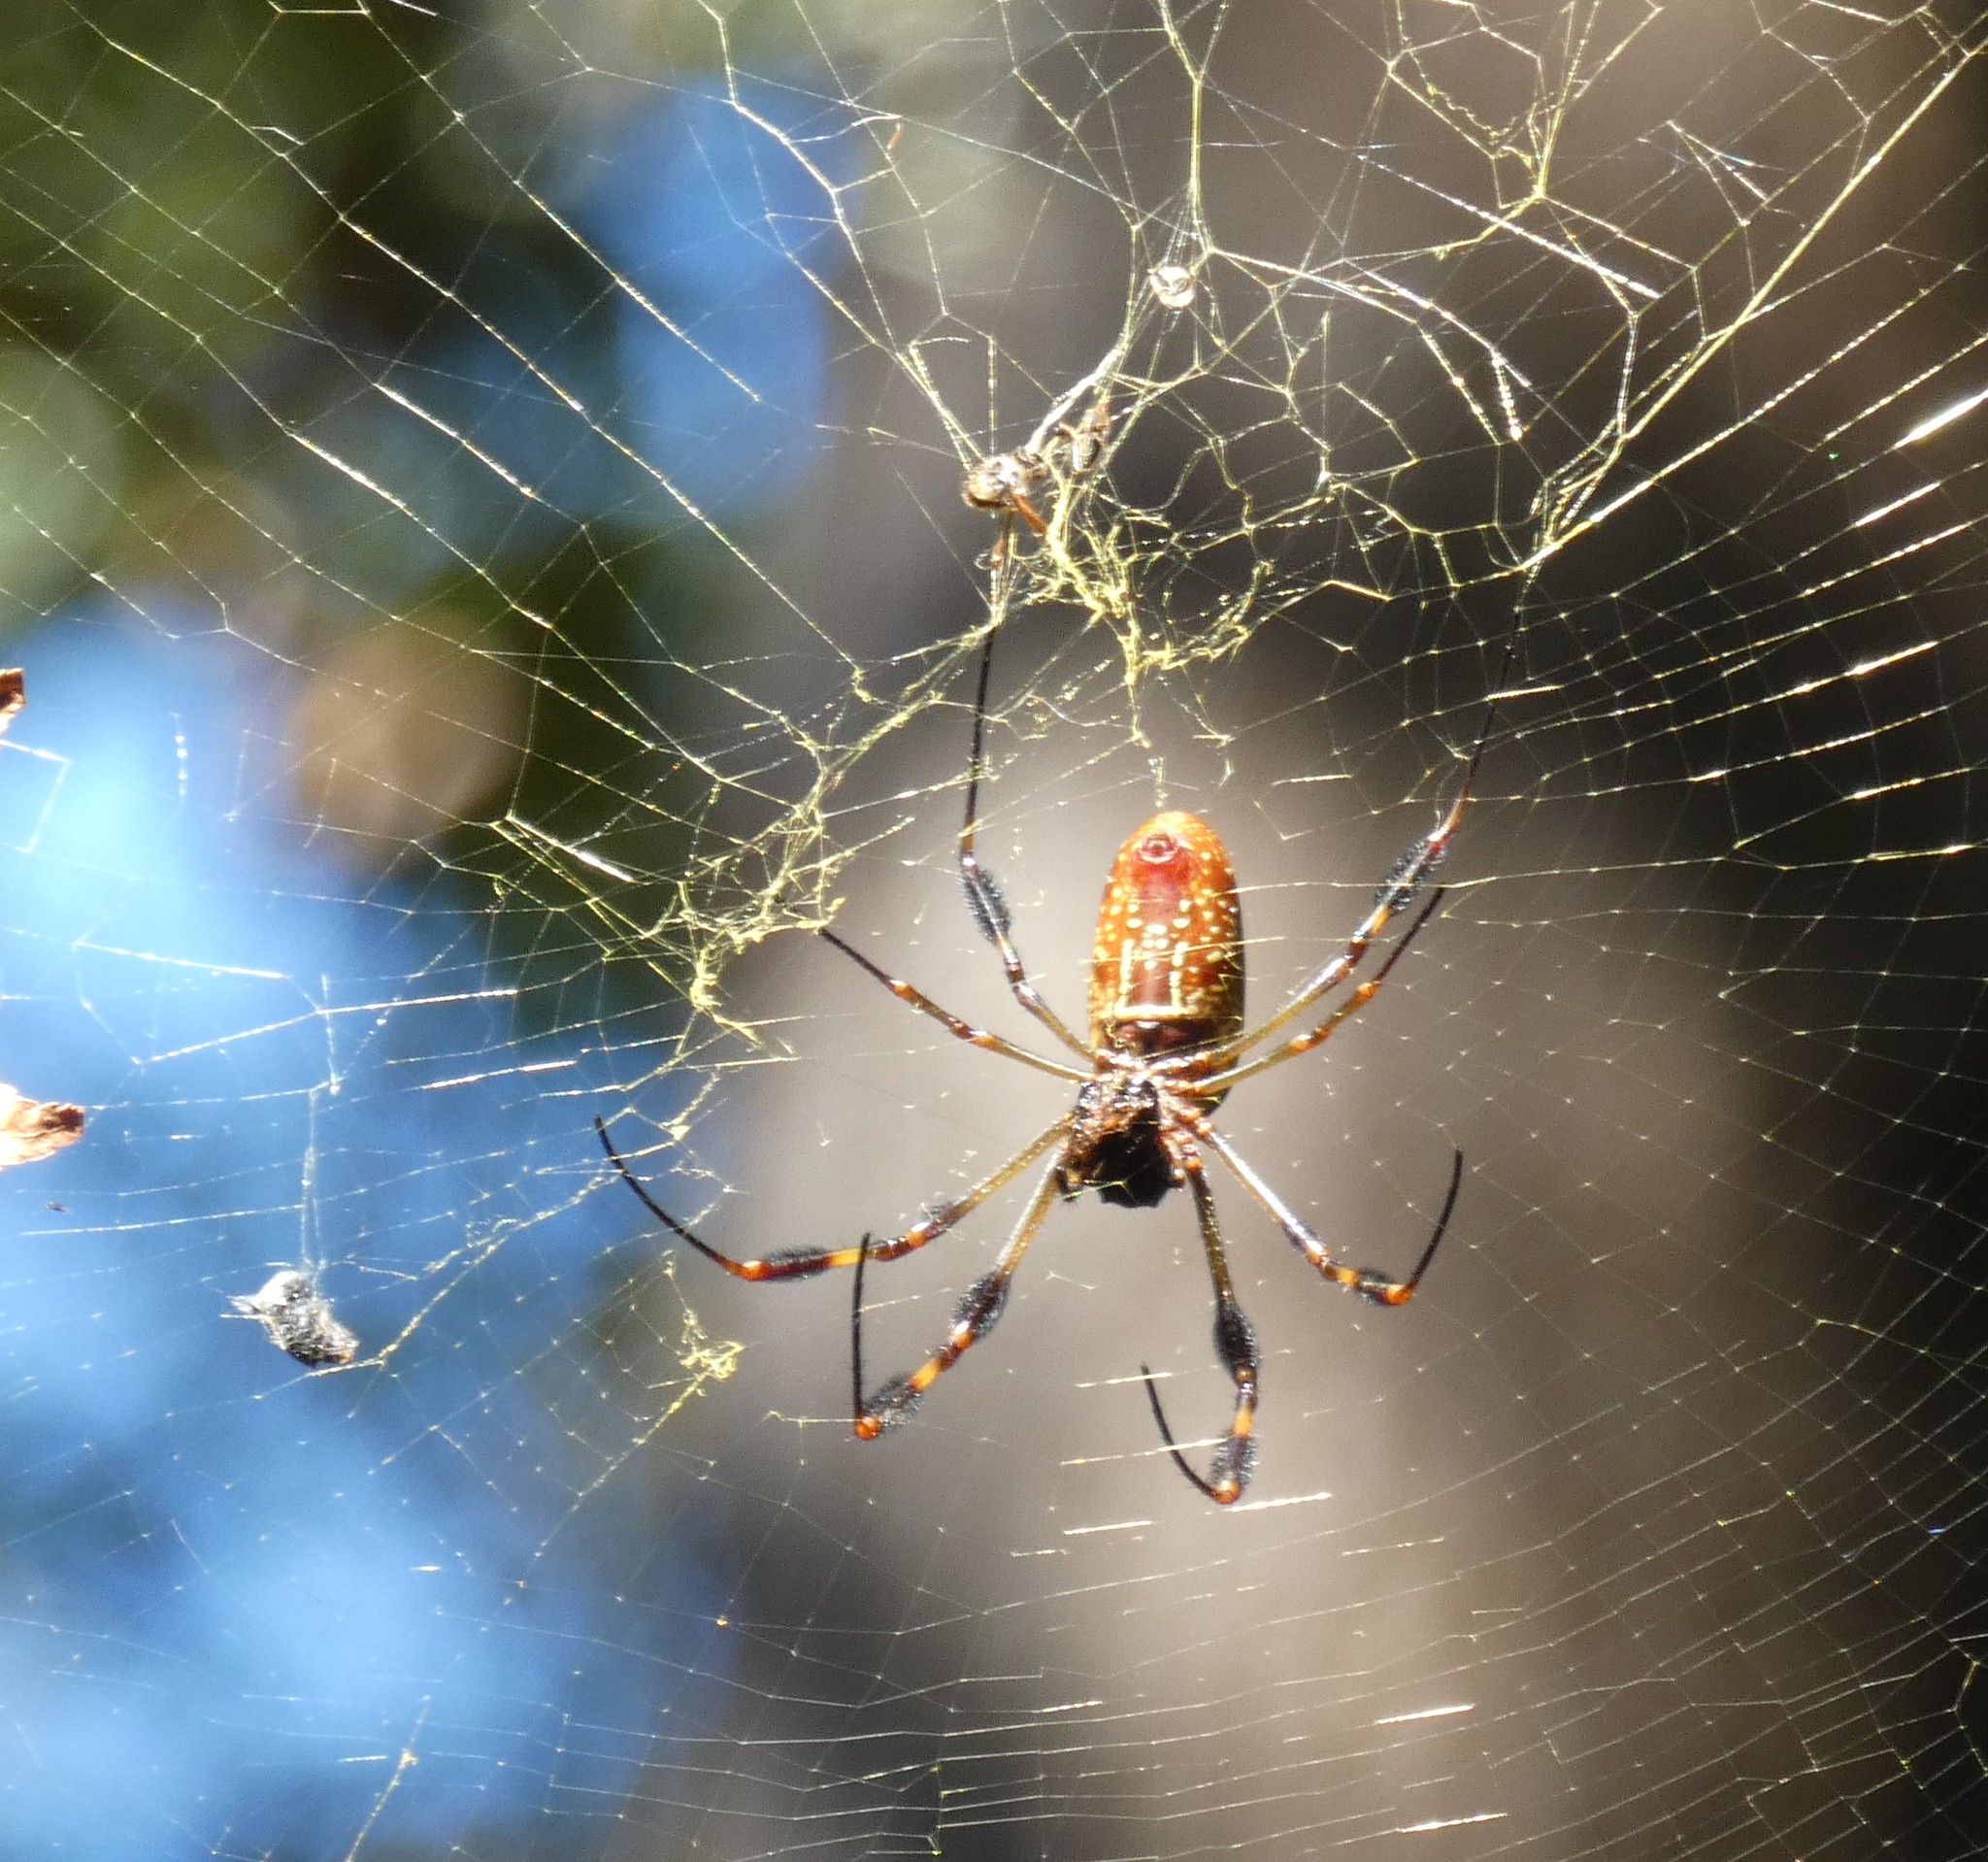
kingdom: Animalia
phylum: Arthropoda
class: Arachnida
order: Araneae
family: Araneidae
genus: Trichonephila
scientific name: Trichonephila clavipes
